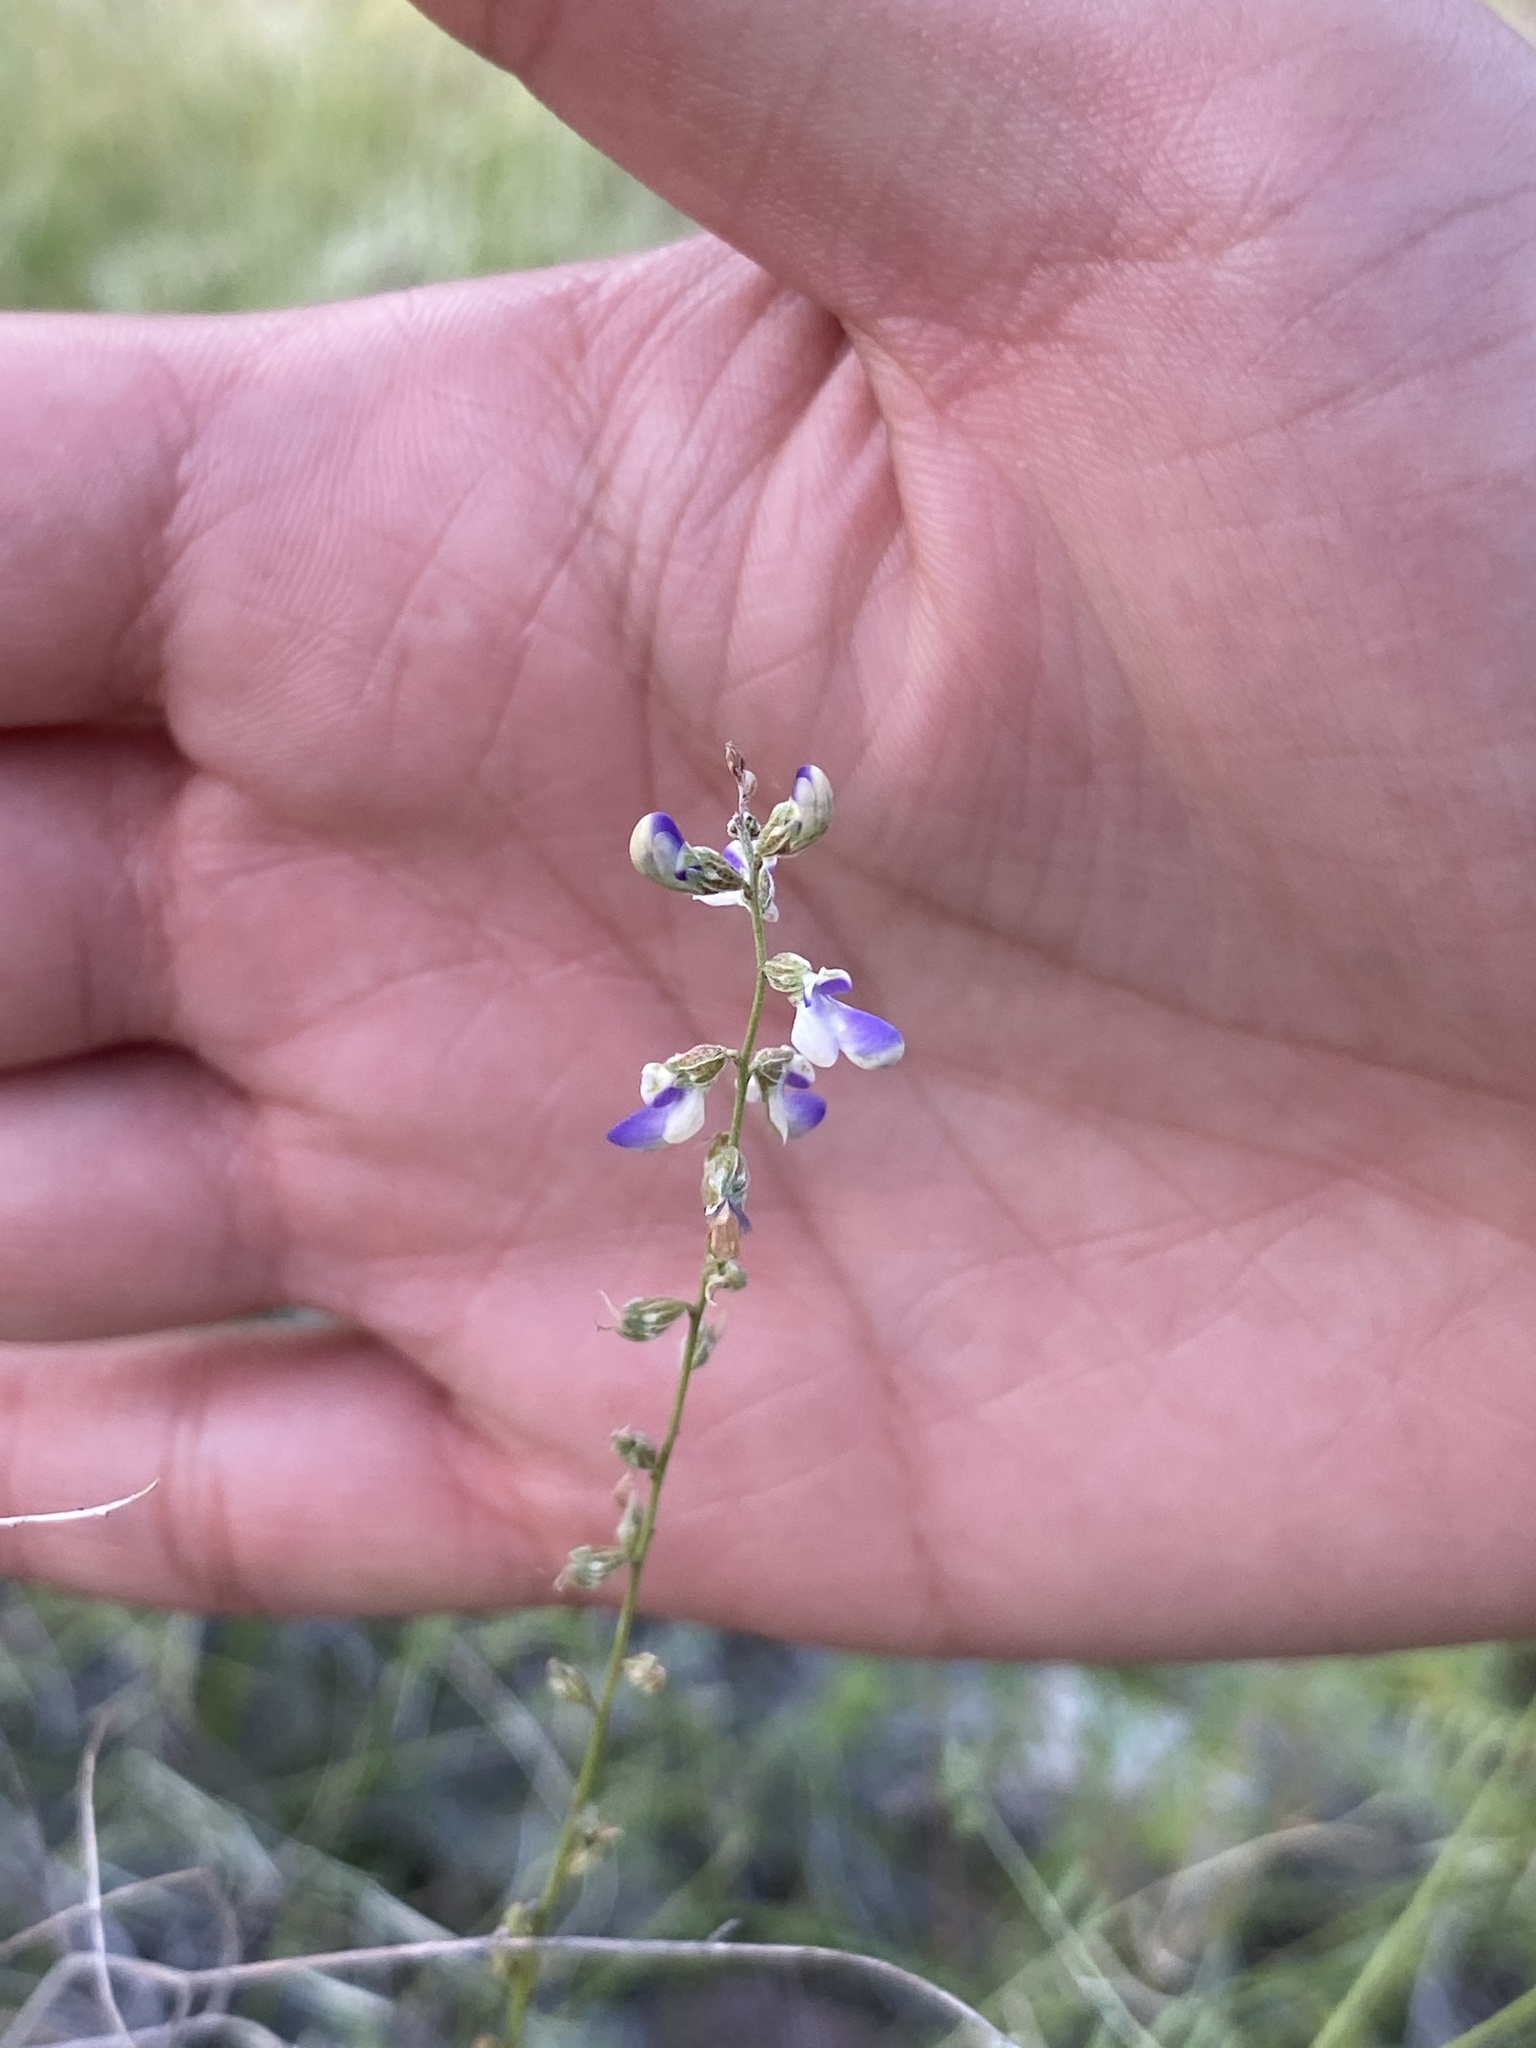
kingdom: Plantae
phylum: Tracheophyta
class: Magnoliopsida
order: Fabales
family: Fabaceae
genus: Marina
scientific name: Marina parryi
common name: Parry's marina
